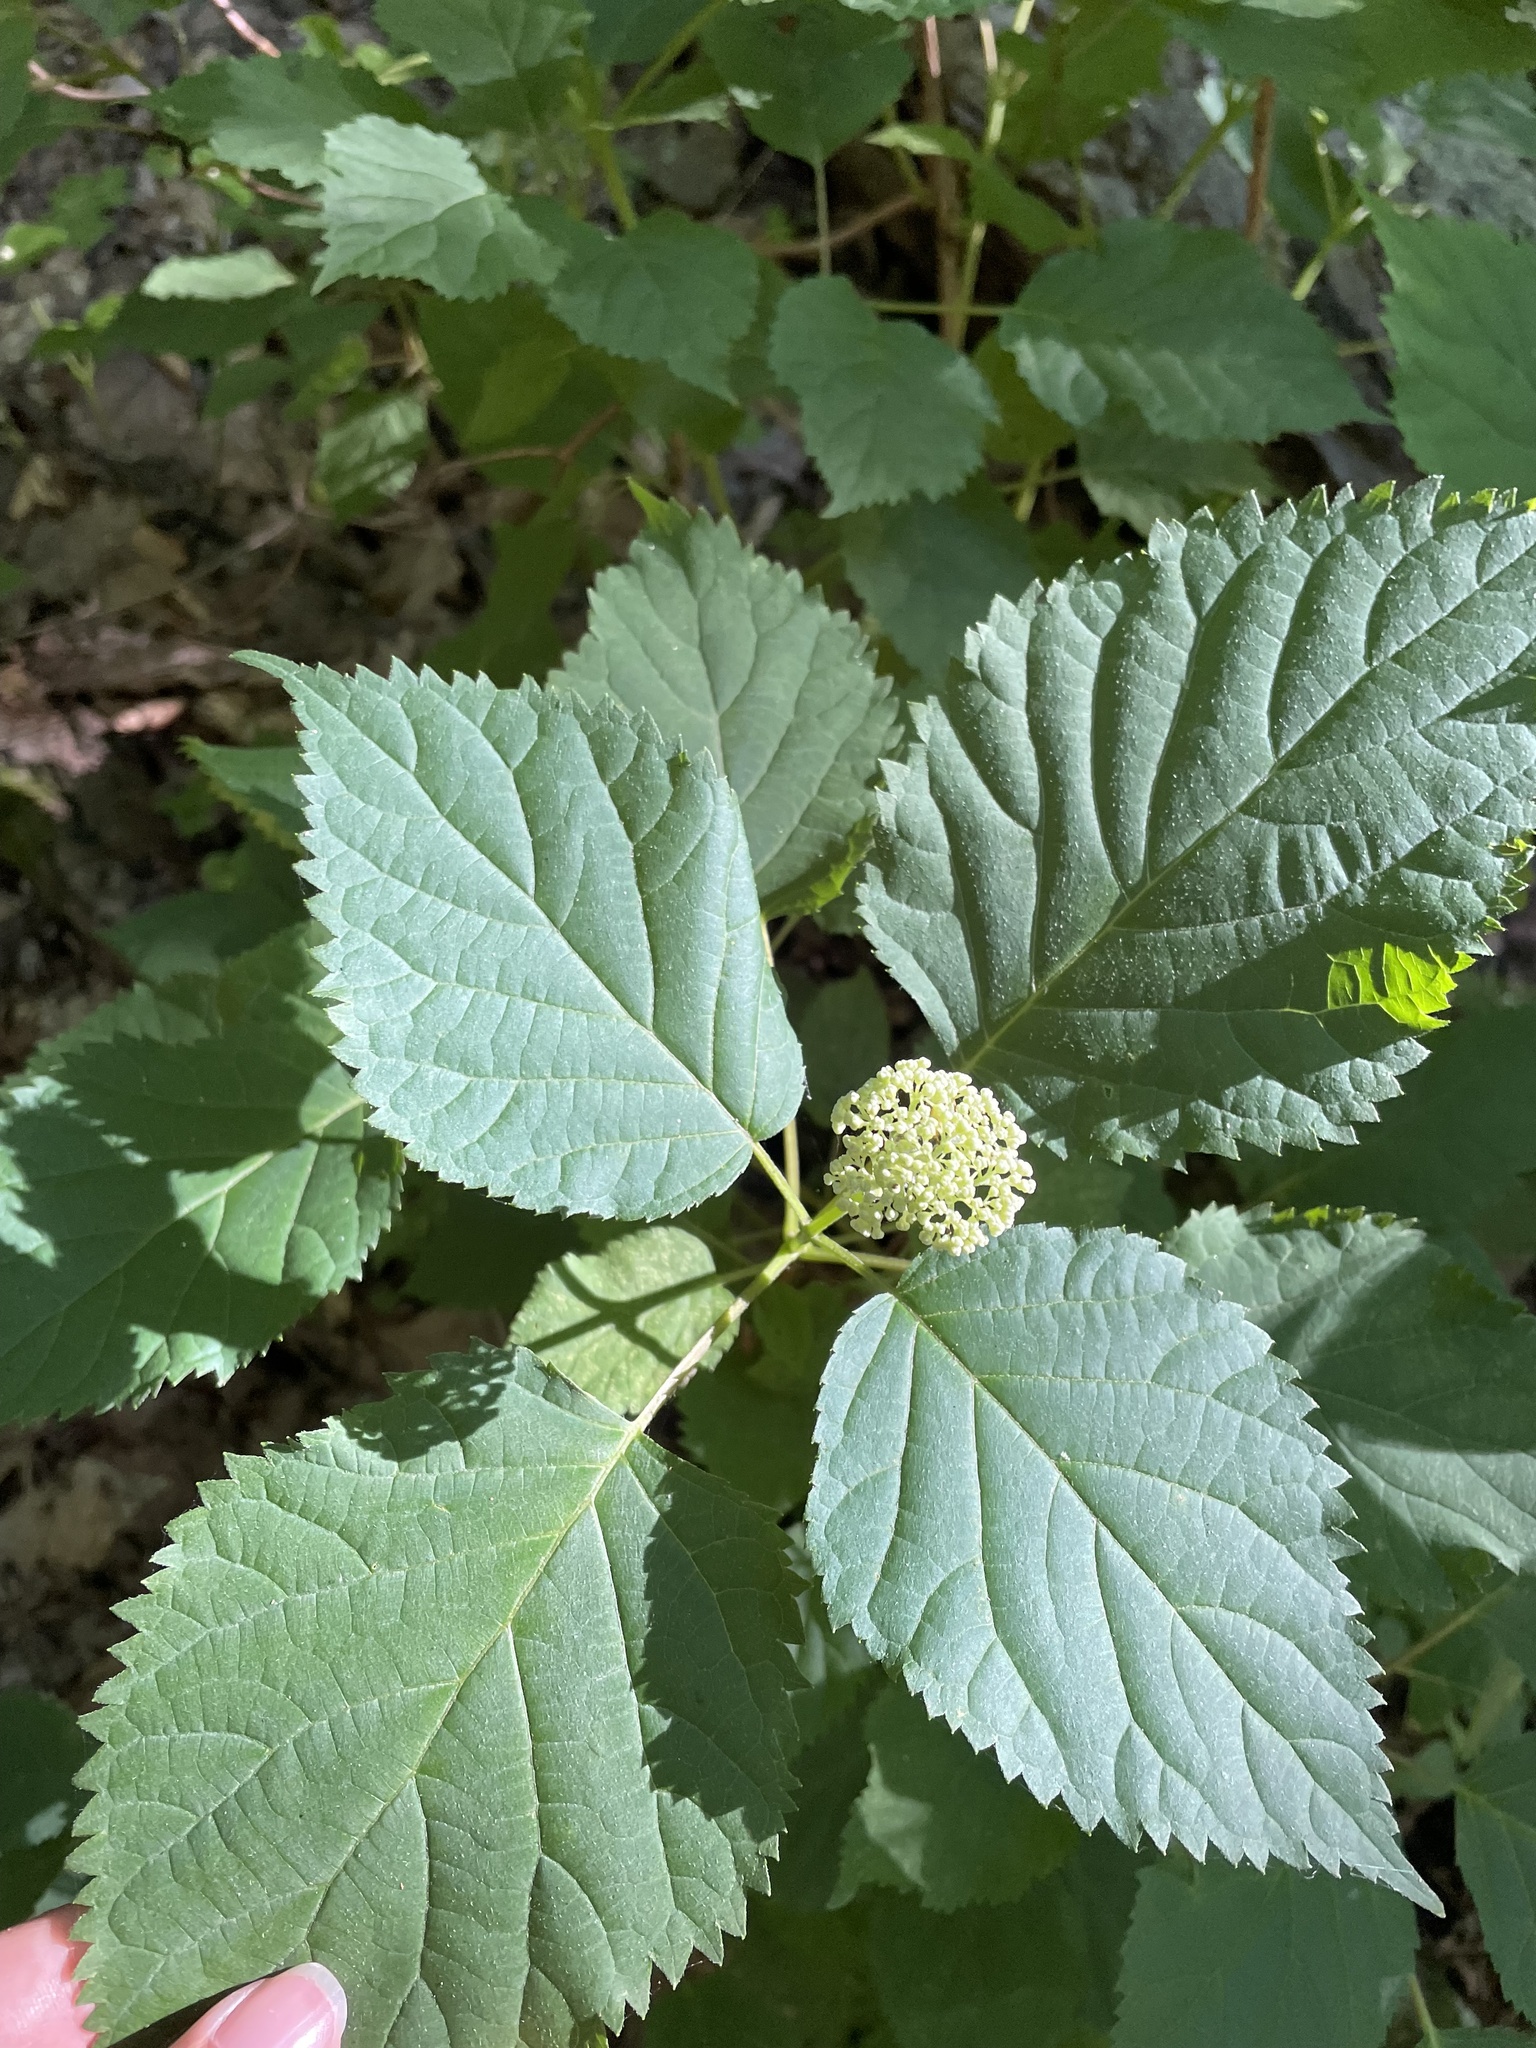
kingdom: Plantae
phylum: Tracheophyta
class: Magnoliopsida
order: Cornales
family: Hydrangeaceae
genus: Hydrangea
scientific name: Hydrangea arborescens
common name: Sevenbark
